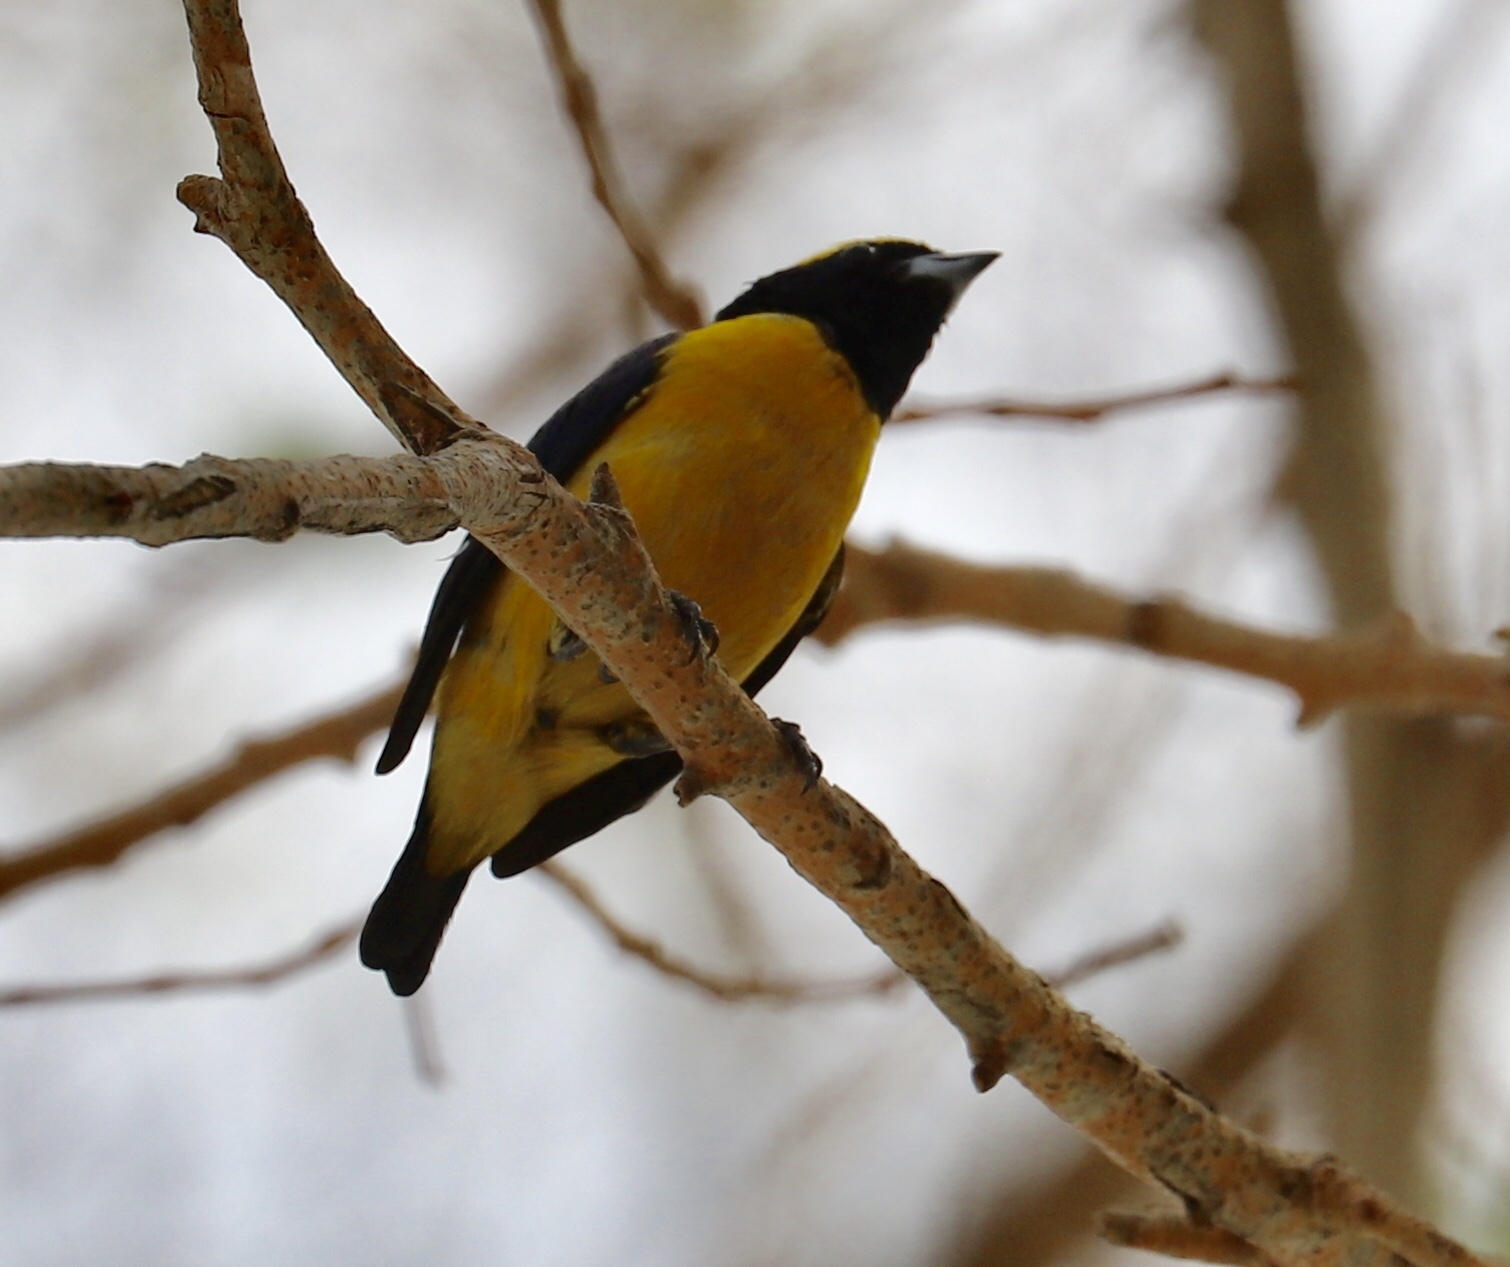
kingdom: Animalia
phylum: Chordata
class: Aves
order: Passeriformes
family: Fringillidae
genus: Euphonia
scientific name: Euphonia luteicapilla
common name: Yellow-crowned euphonia
